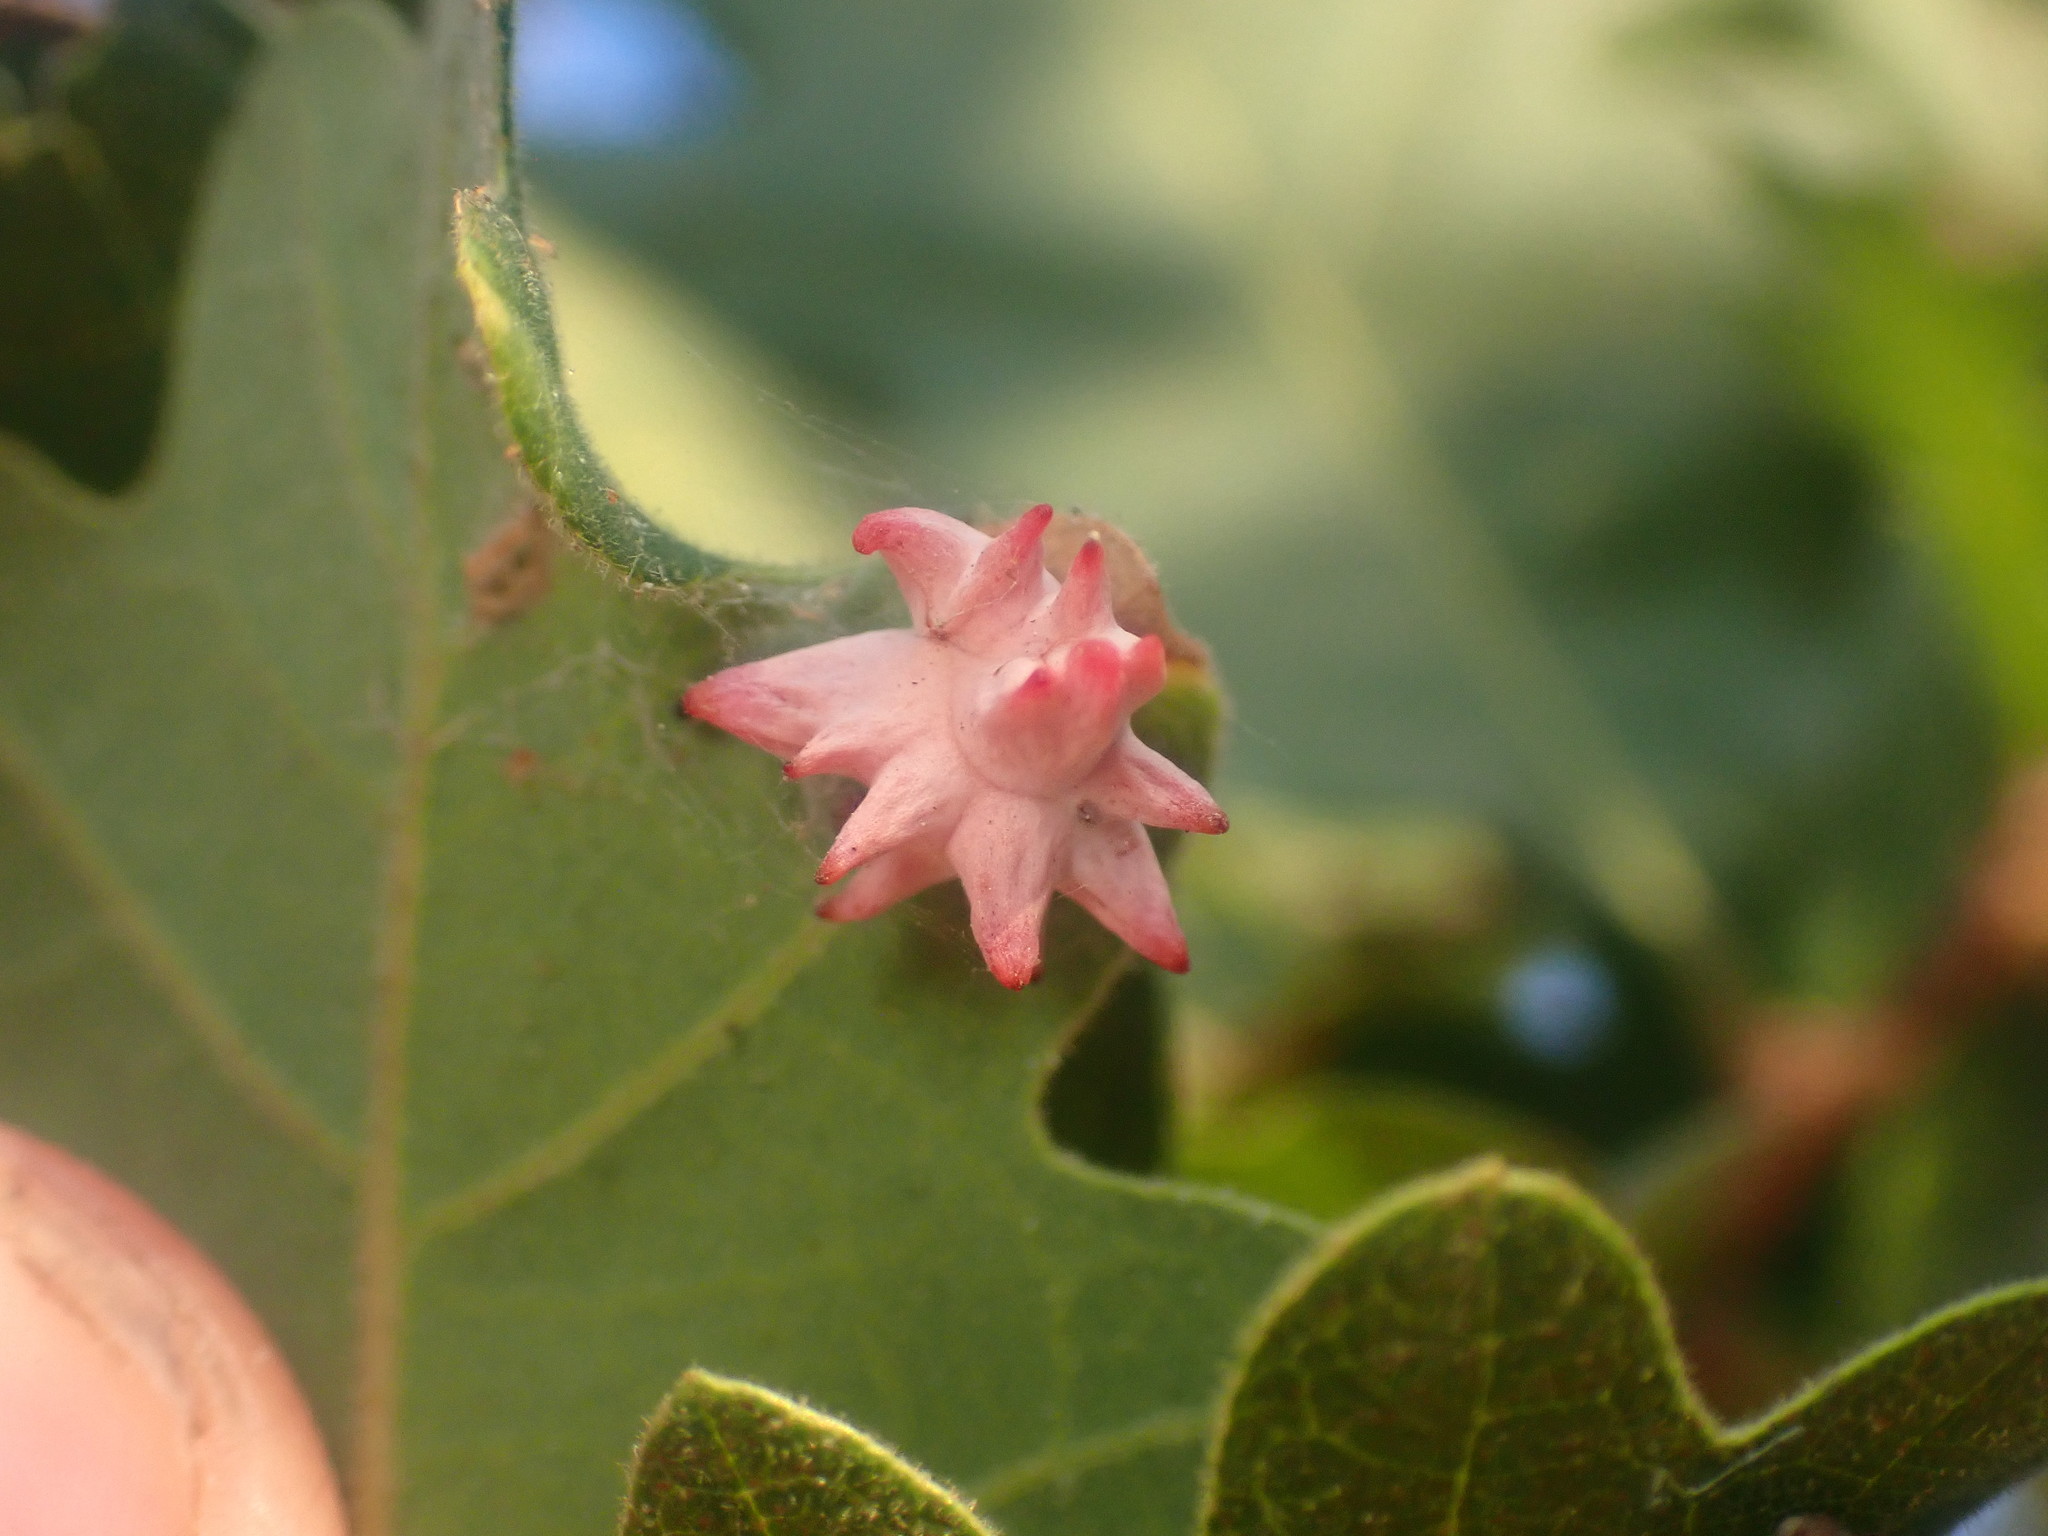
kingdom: Animalia
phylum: Arthropoda
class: Insecta
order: Hymenoptera
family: Cynipidae
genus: Cynips
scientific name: Cynips douglasi
